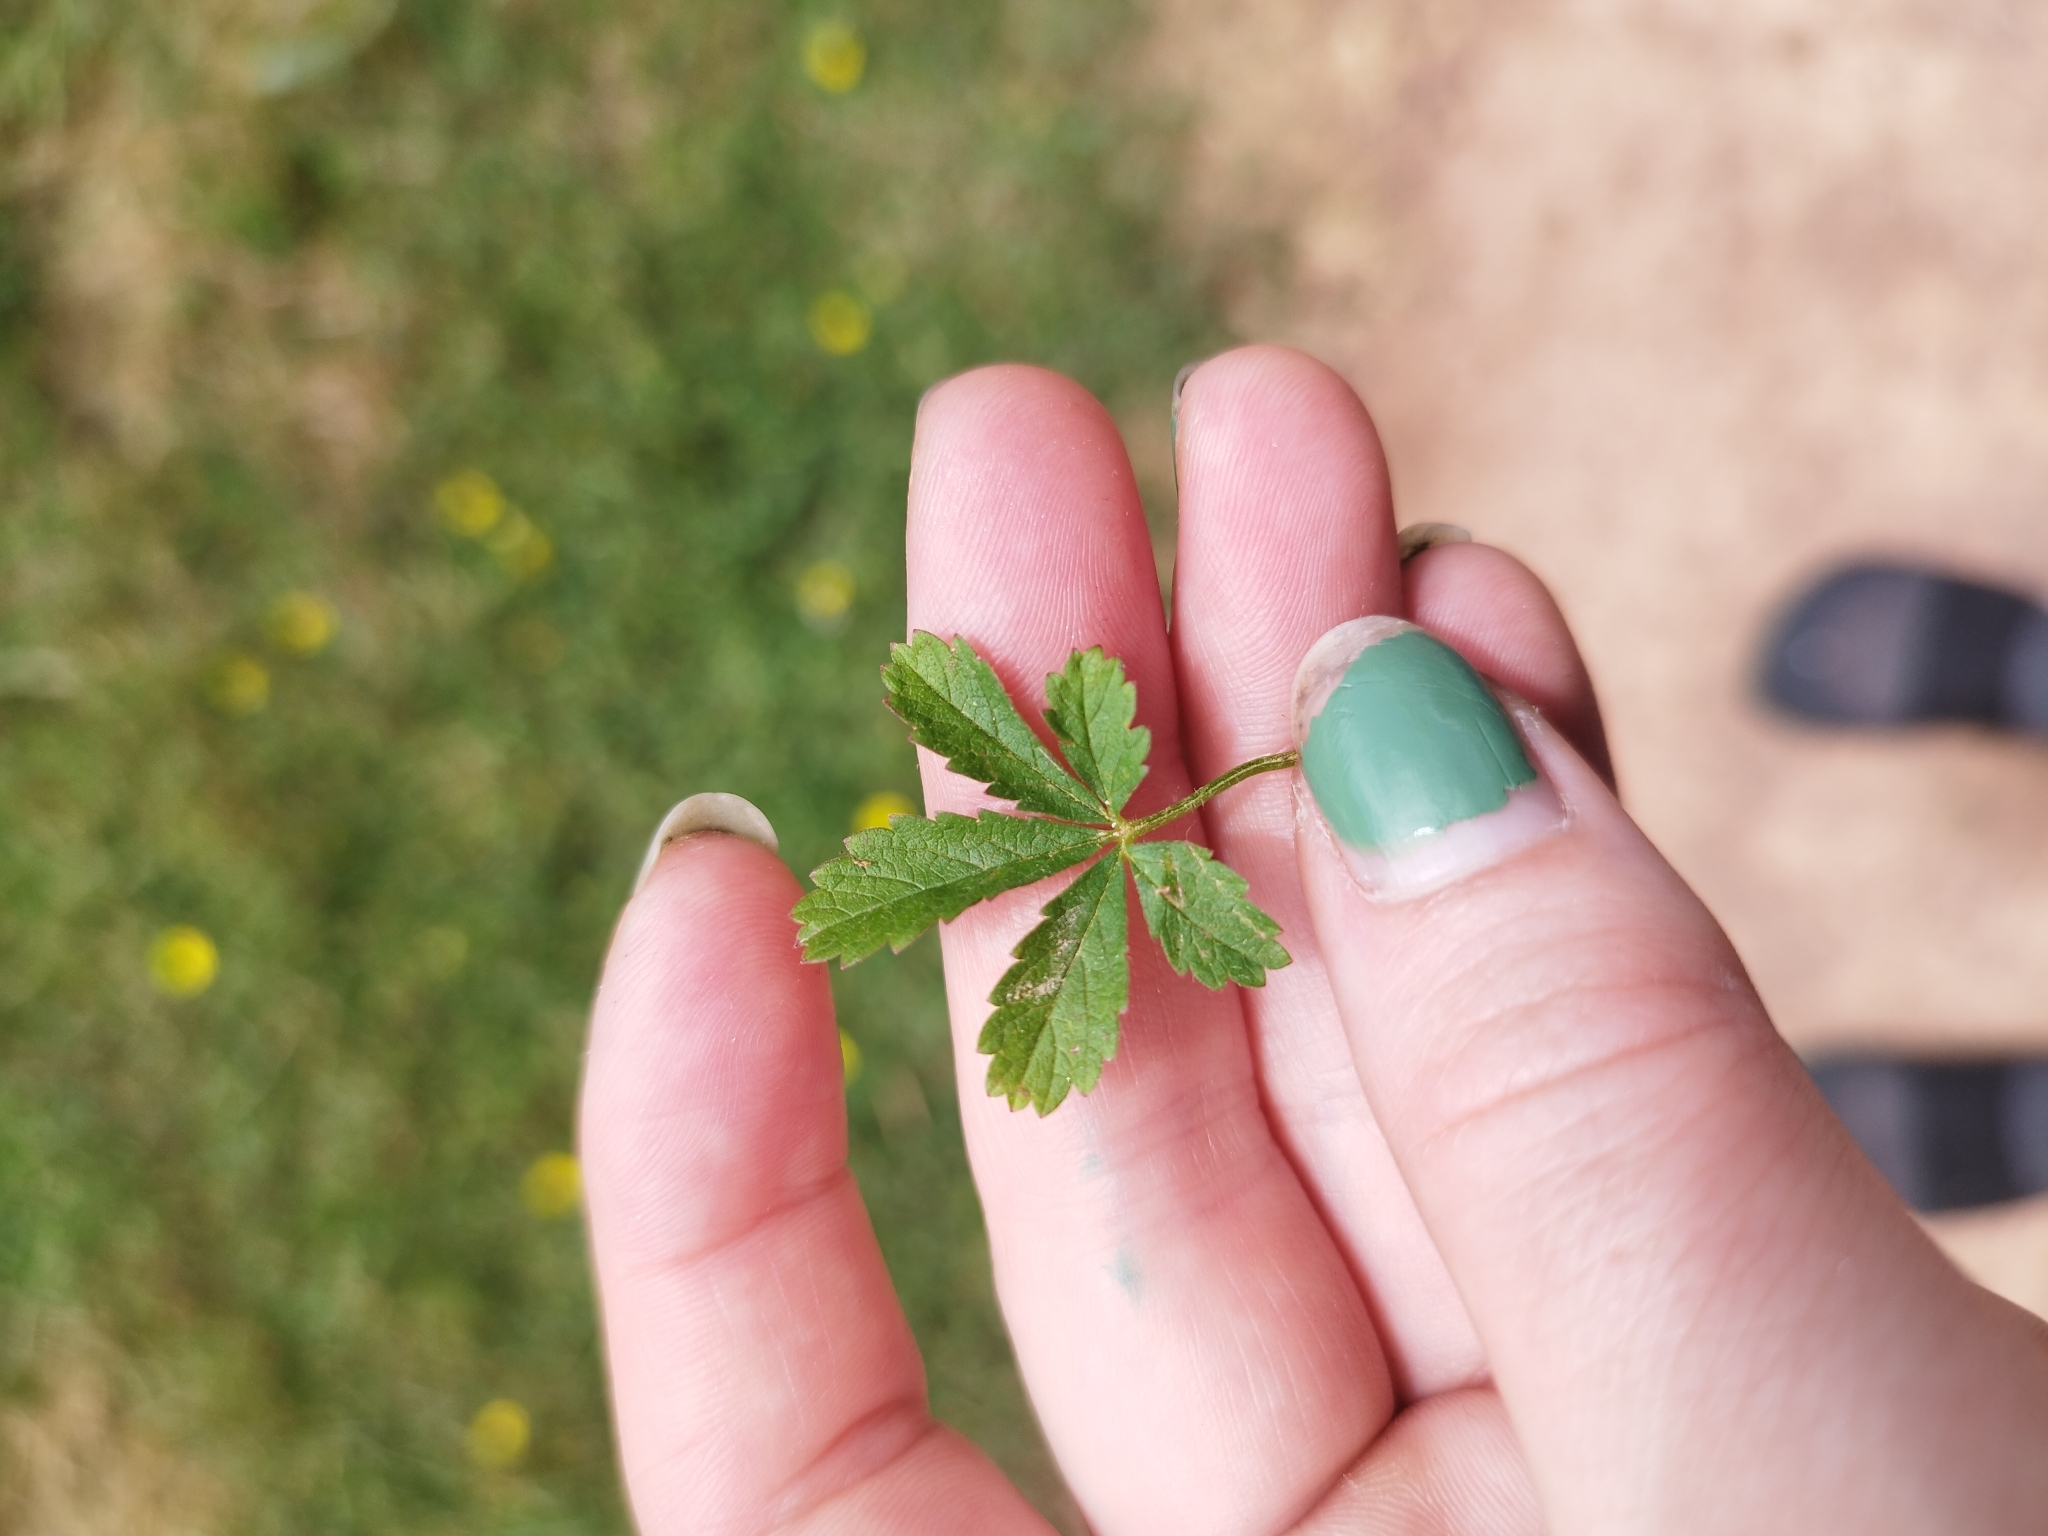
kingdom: Plantae
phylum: Tracheophyta
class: Magnoliopsida
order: Rosales
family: Rosaceae
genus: Potentilla
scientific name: Potentilla reptans
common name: Creeping cinquefoil
